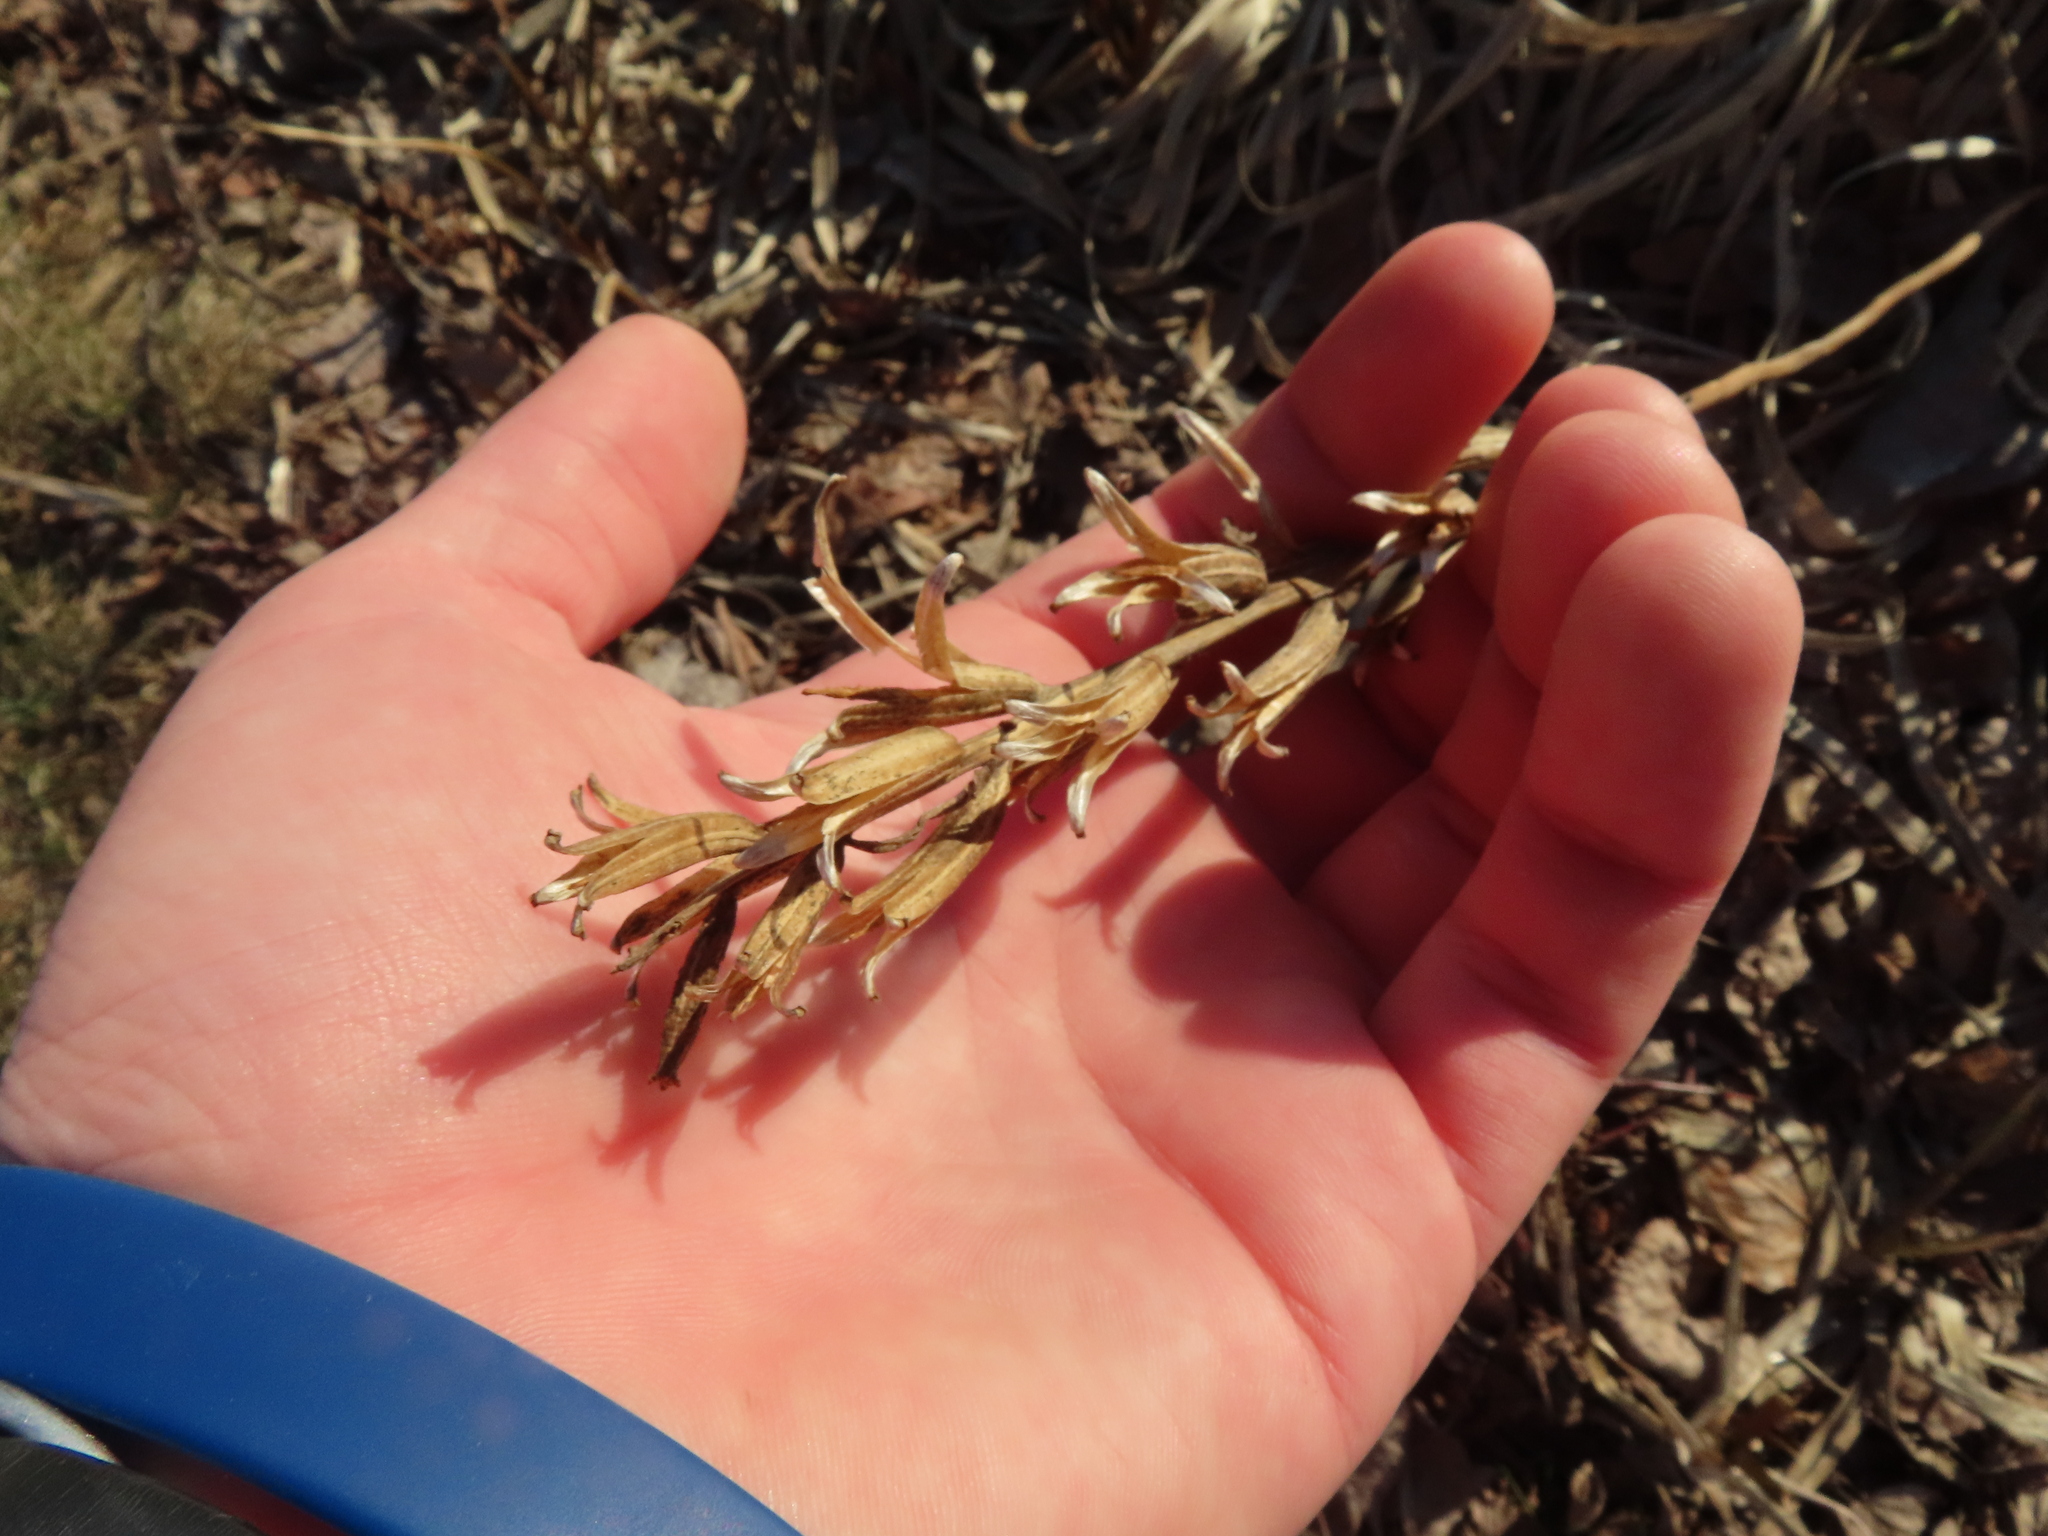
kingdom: Plantae
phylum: Tracheophyta
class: Magnoliopsida
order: Myrtales
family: Onagraceae
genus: Oenothera
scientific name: Oenothera biennis
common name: Common evening-primrose
